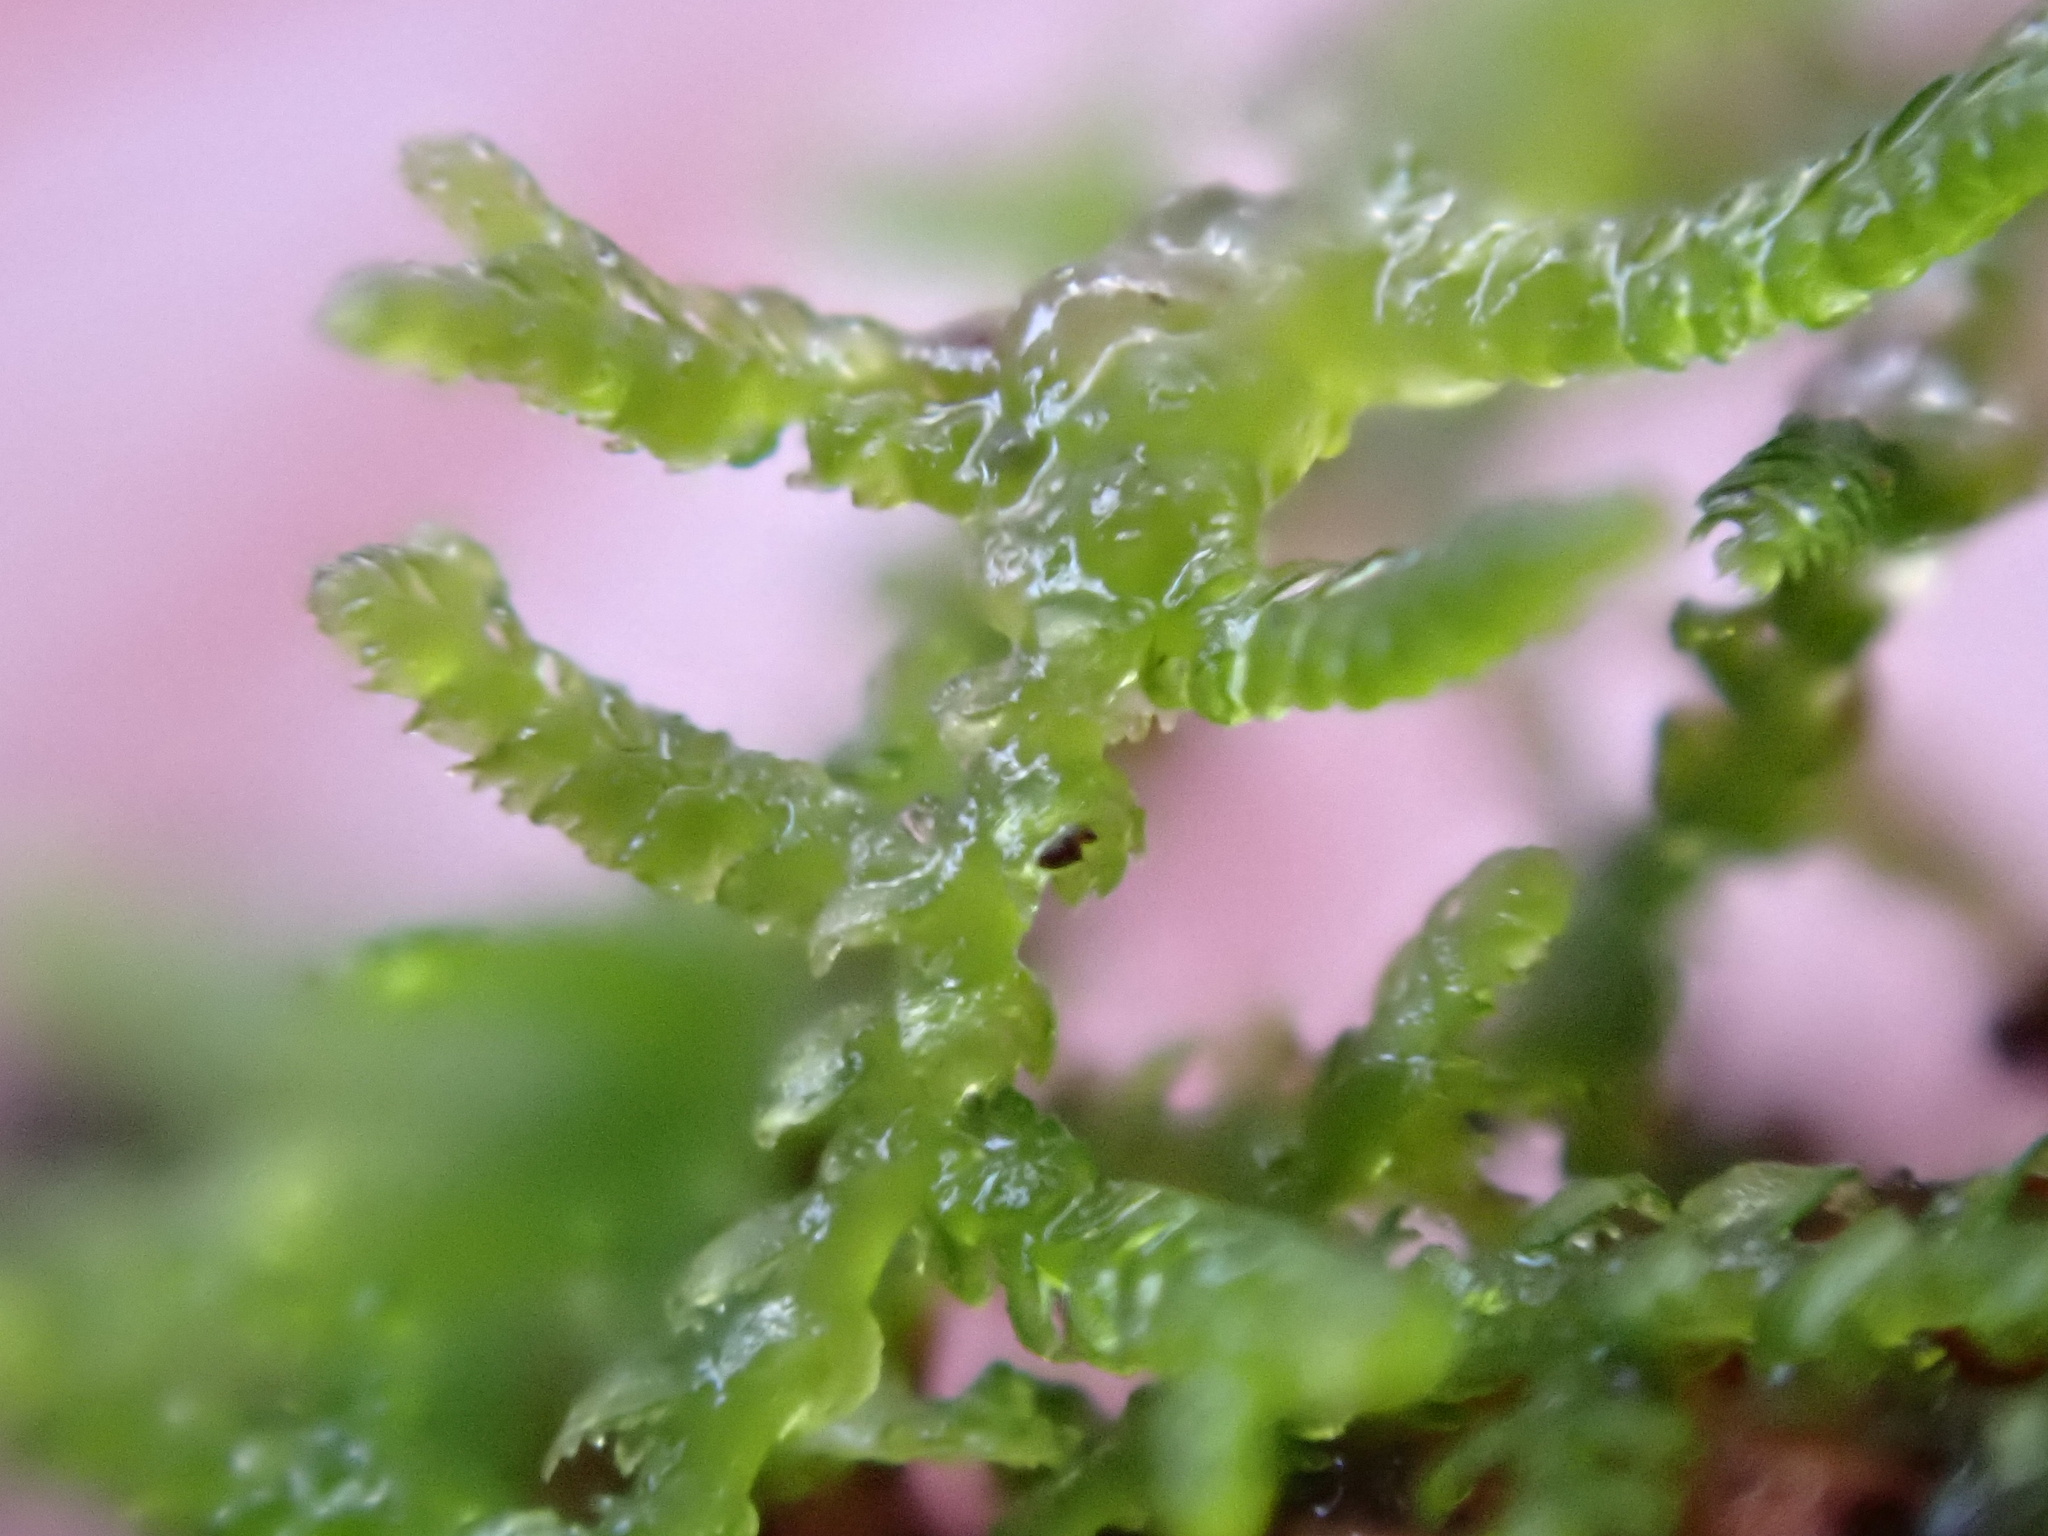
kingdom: Plantae
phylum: Marchantiophyta
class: Jungermanniopsida
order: Jungermanniales
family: Lepidoziaceae
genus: Lepidozia
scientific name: Lepidozia reptans
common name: Creeping fingerwort
